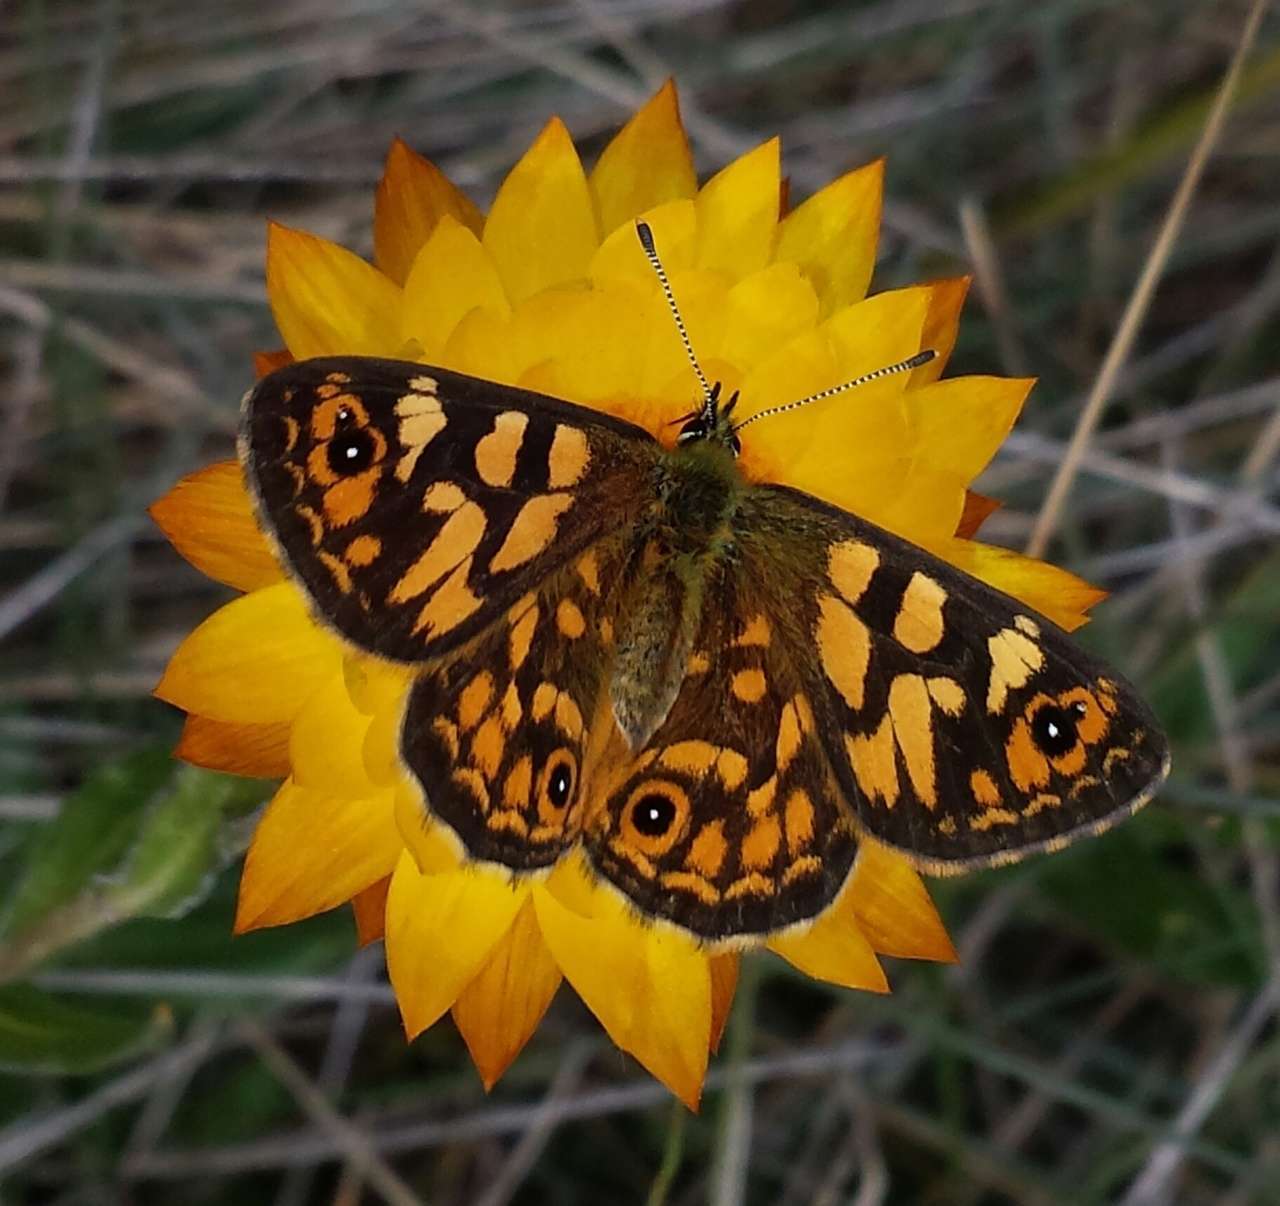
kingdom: Animalia
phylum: Arthropoda
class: Insecta
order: Lepidoptera
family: Nymphalidae
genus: Oreixenica
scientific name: Oreixenica correae
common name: Correa brown
